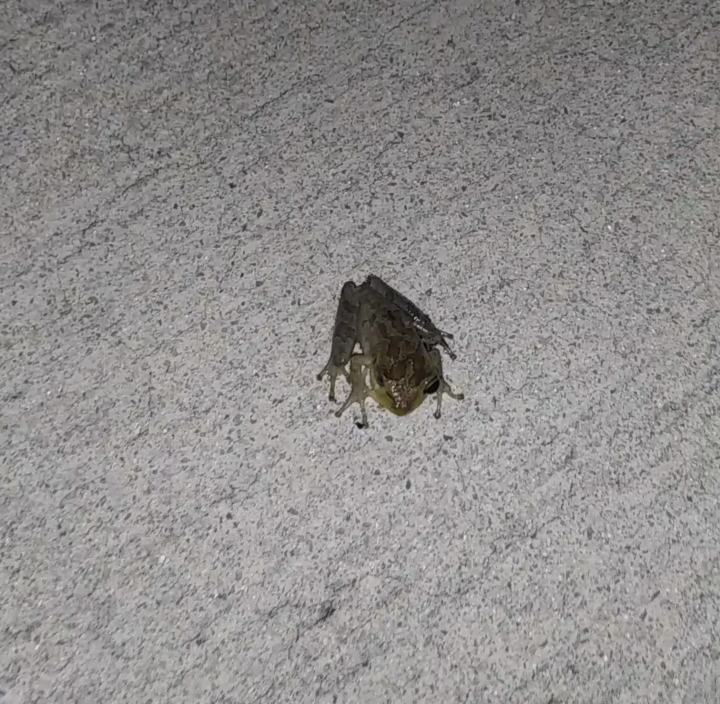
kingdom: Animalia
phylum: Chordata
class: Amphibia
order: Anura
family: Hylidae
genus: Osteopilus
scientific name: Osteopilus septentrionalis
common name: Cuban treefrog
